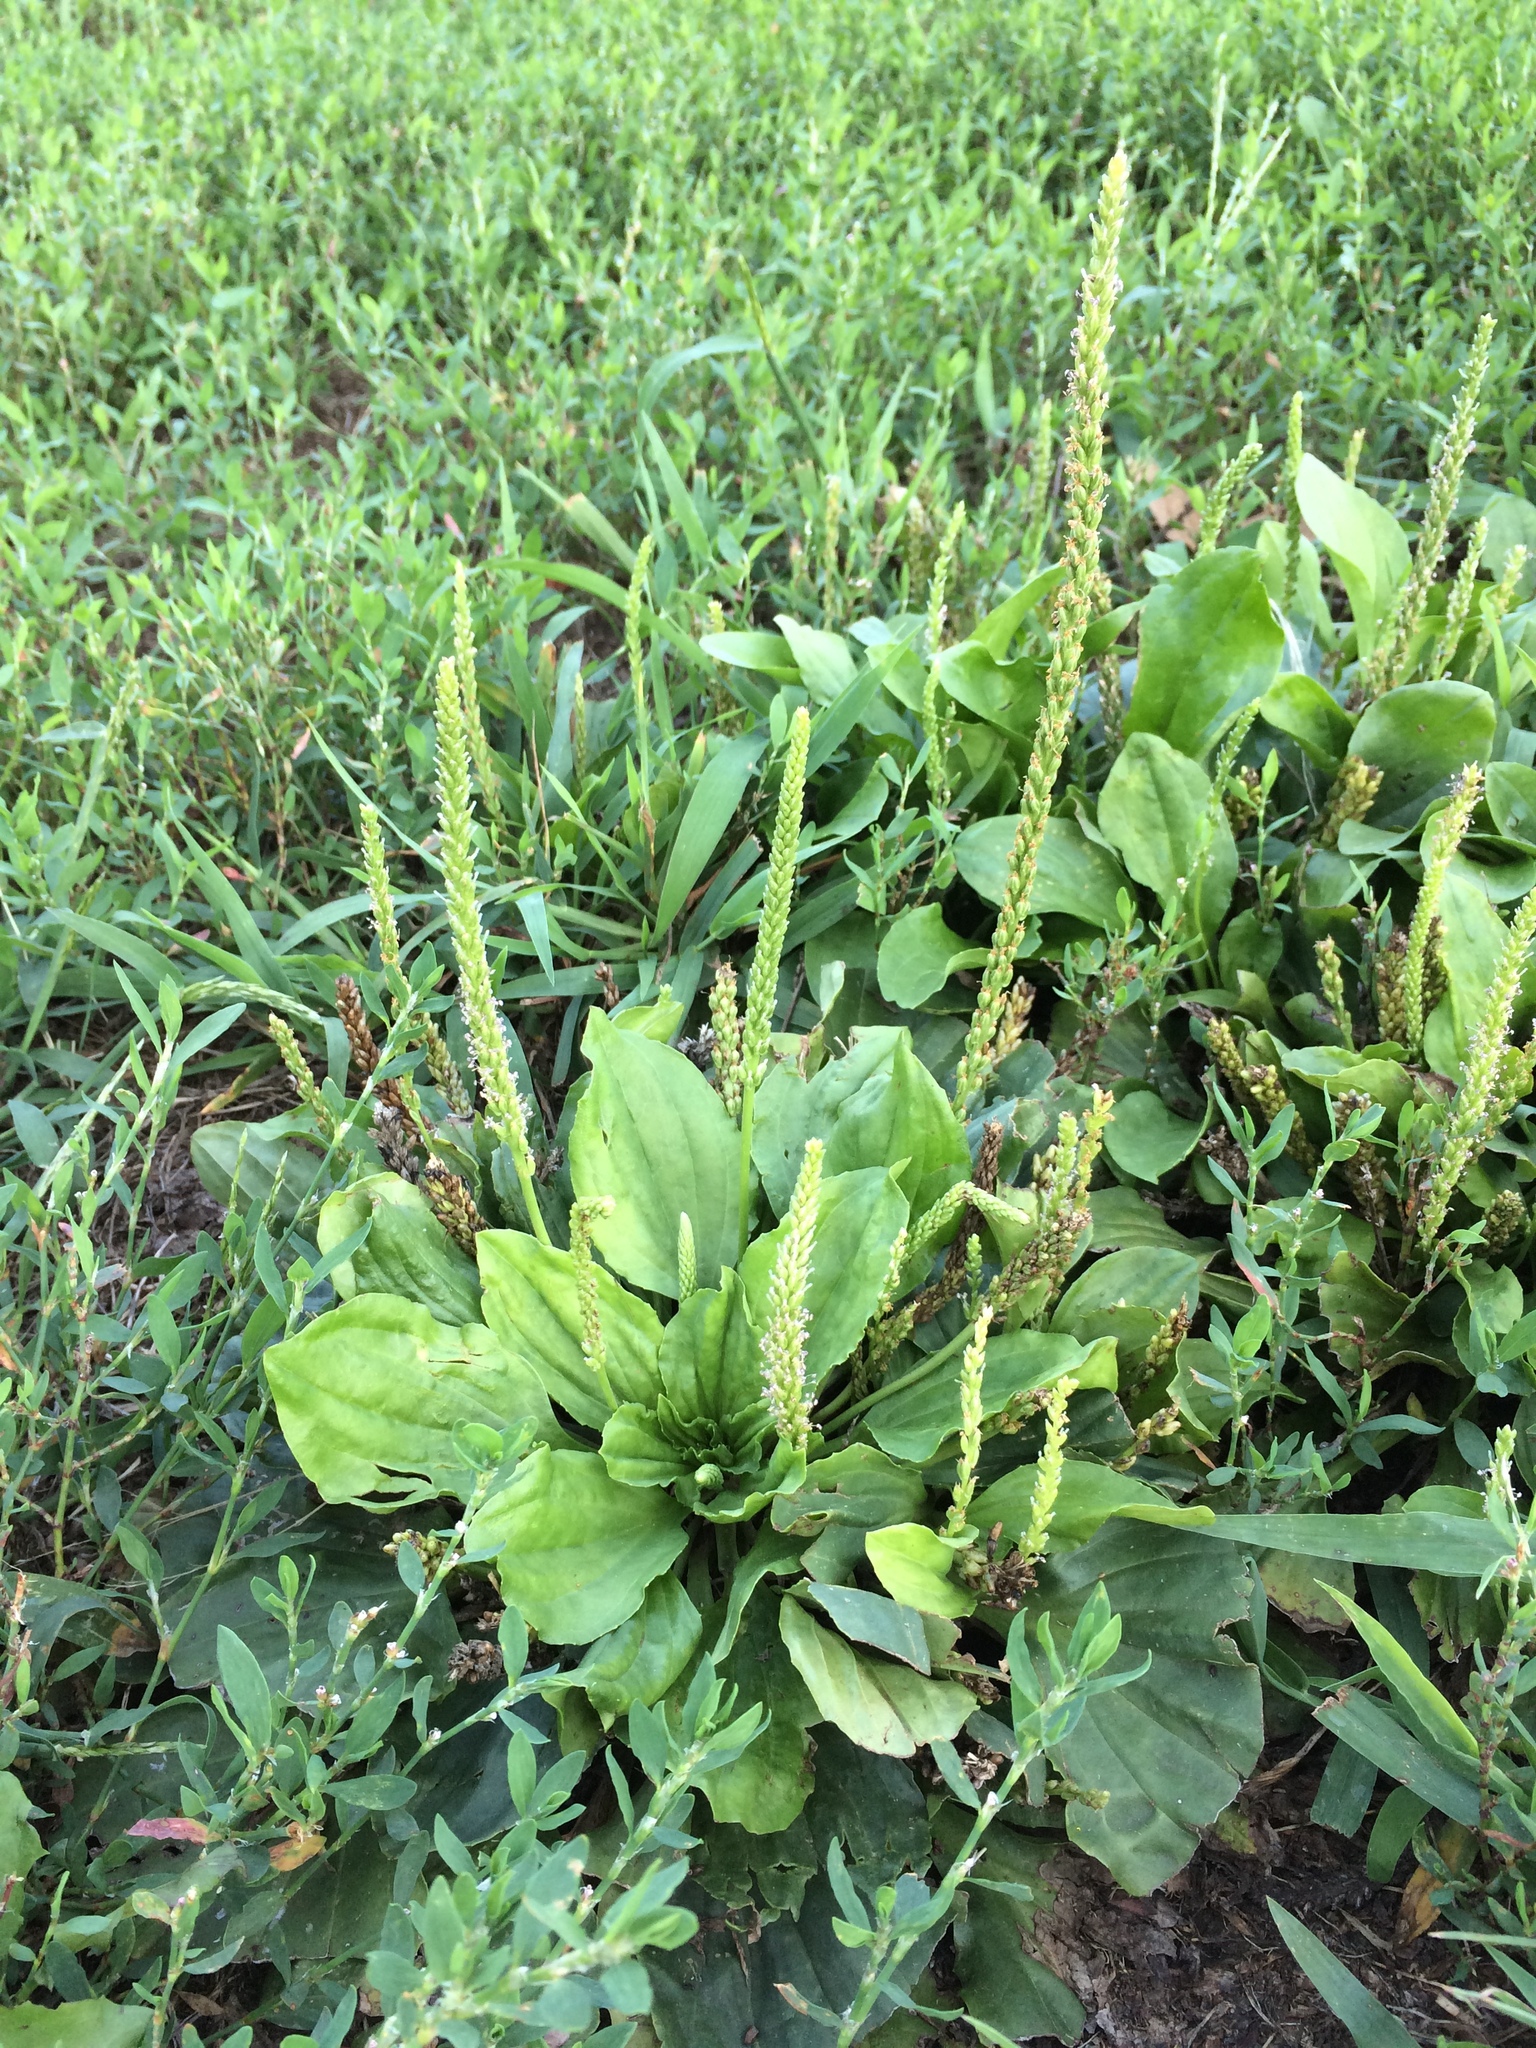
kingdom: Plantae
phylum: Tracheophyta
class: Magnoliopsida
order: Lamiales
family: Plantaginaceae
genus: Plantago
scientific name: Plantago rugelii
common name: American plantain
